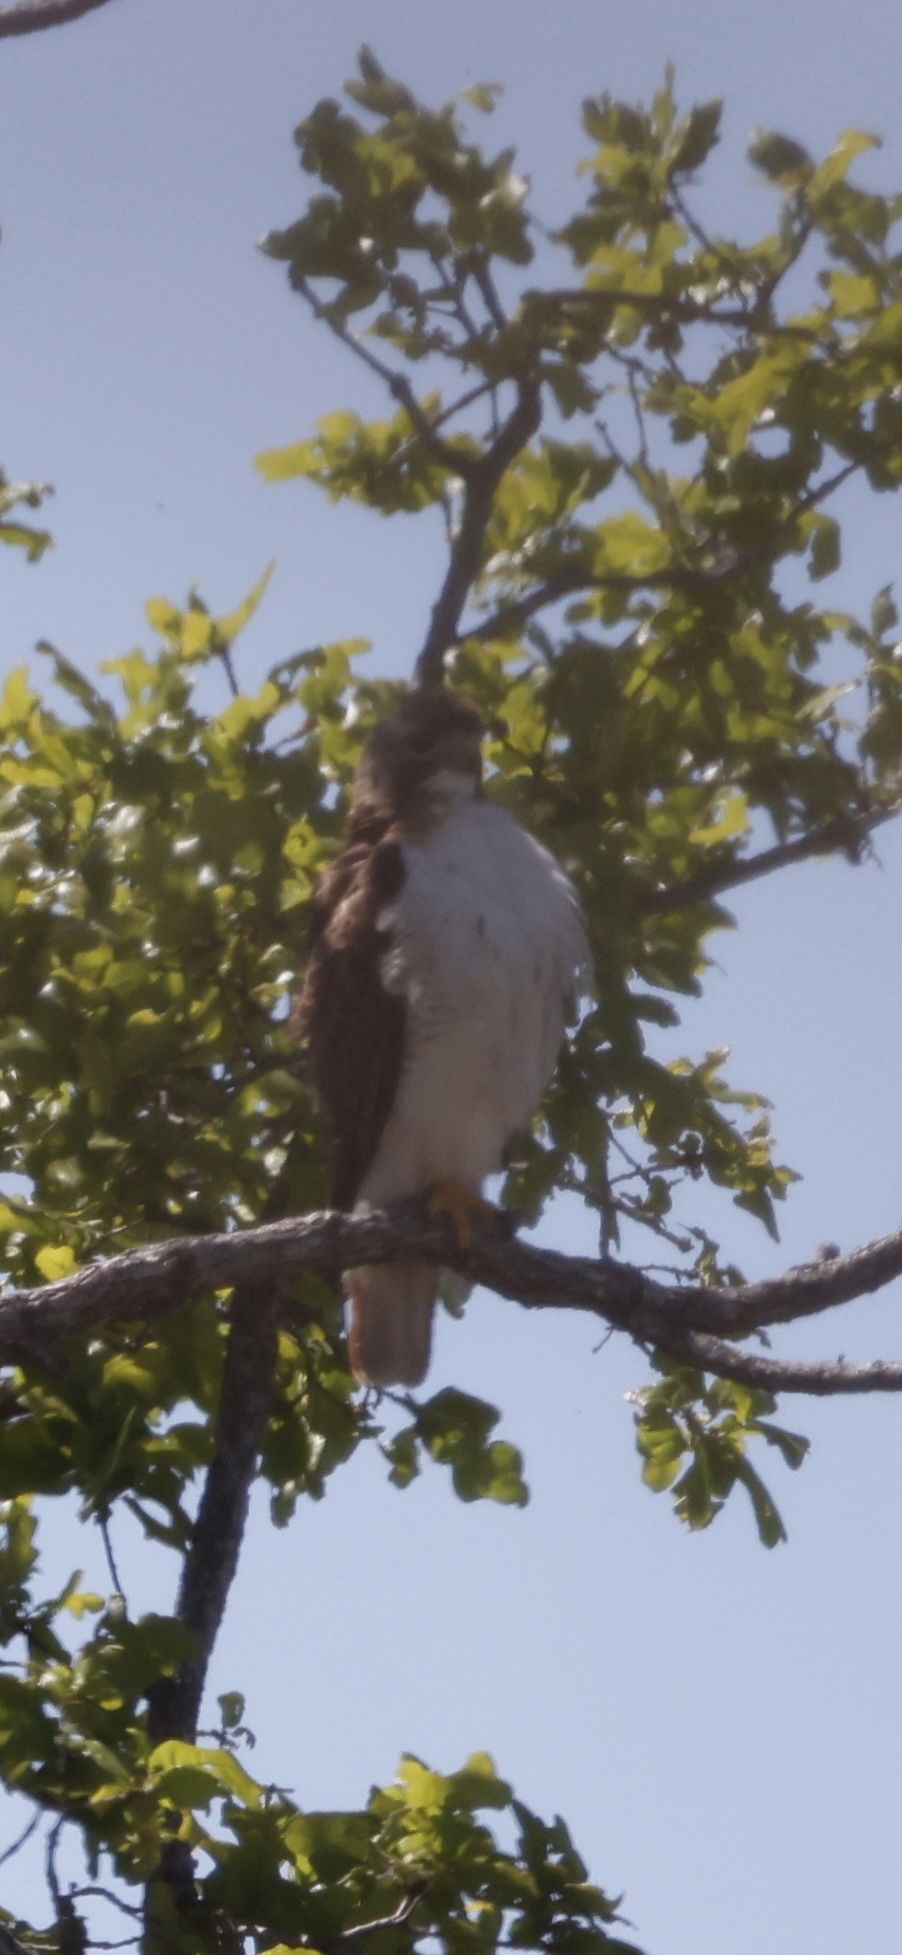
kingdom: Animalia
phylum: Chordata
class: Aves
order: Accipitriformes
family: Accipitridae
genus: Buteo
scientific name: Buteo jamaicensis
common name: Red-tailed hawk
